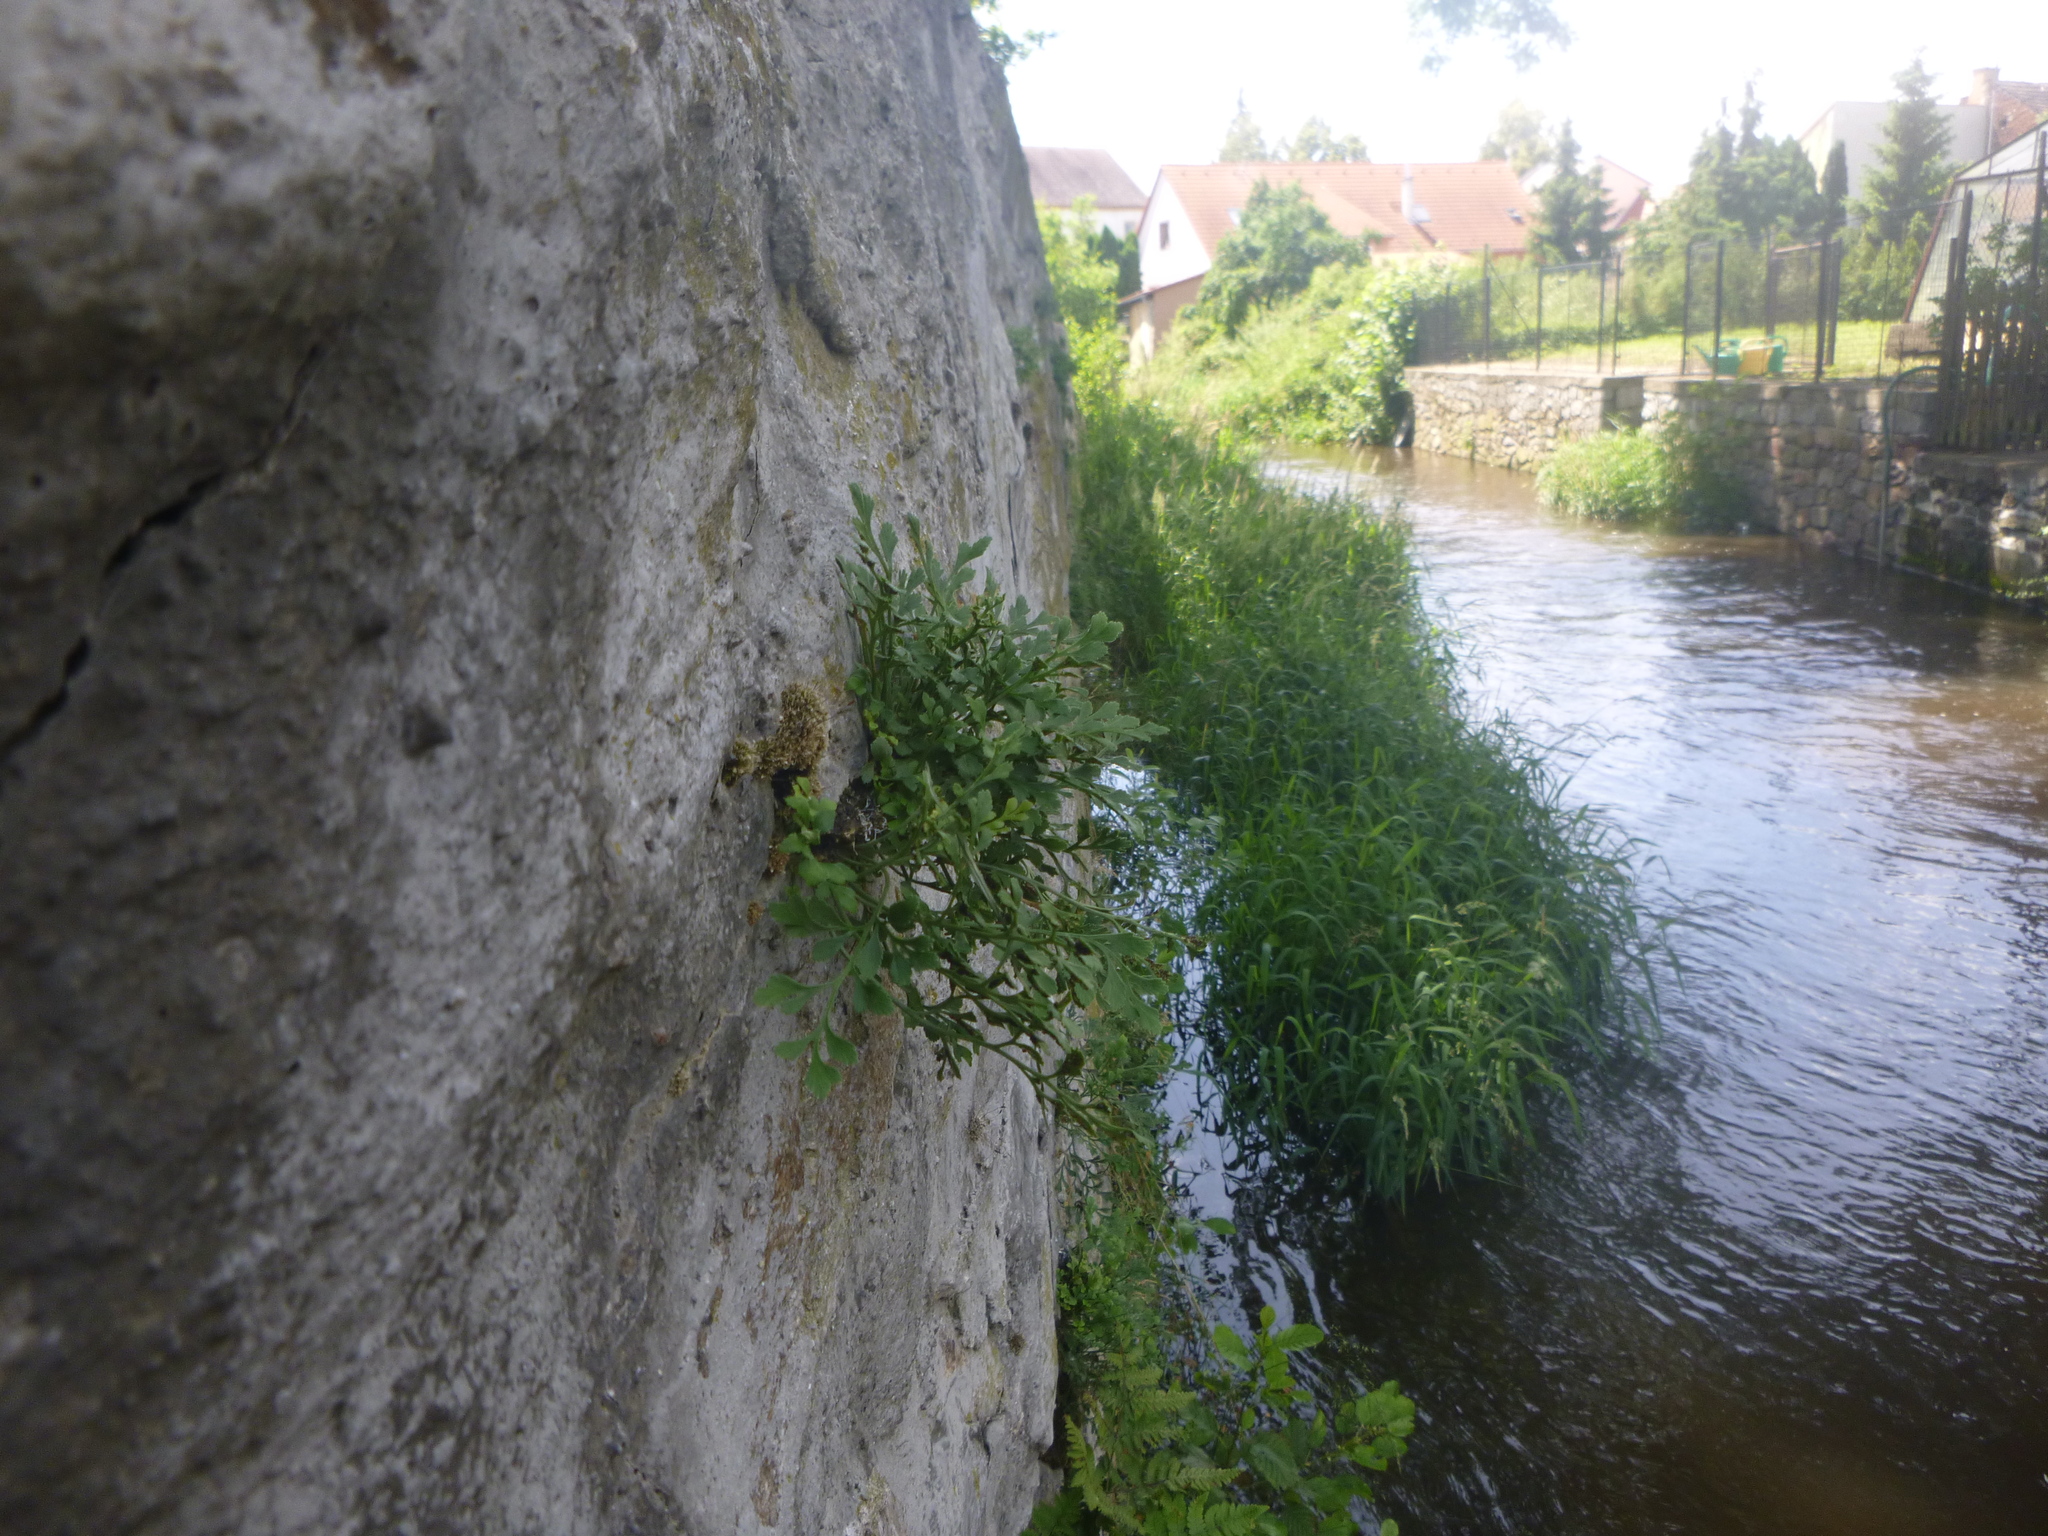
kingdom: Plantae
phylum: Tracheophyta
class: Polypodiopsida
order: Polypodiales
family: Aspleniaceae
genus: Asplenium
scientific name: Asplenium ruta-muraria
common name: Wall-rue
